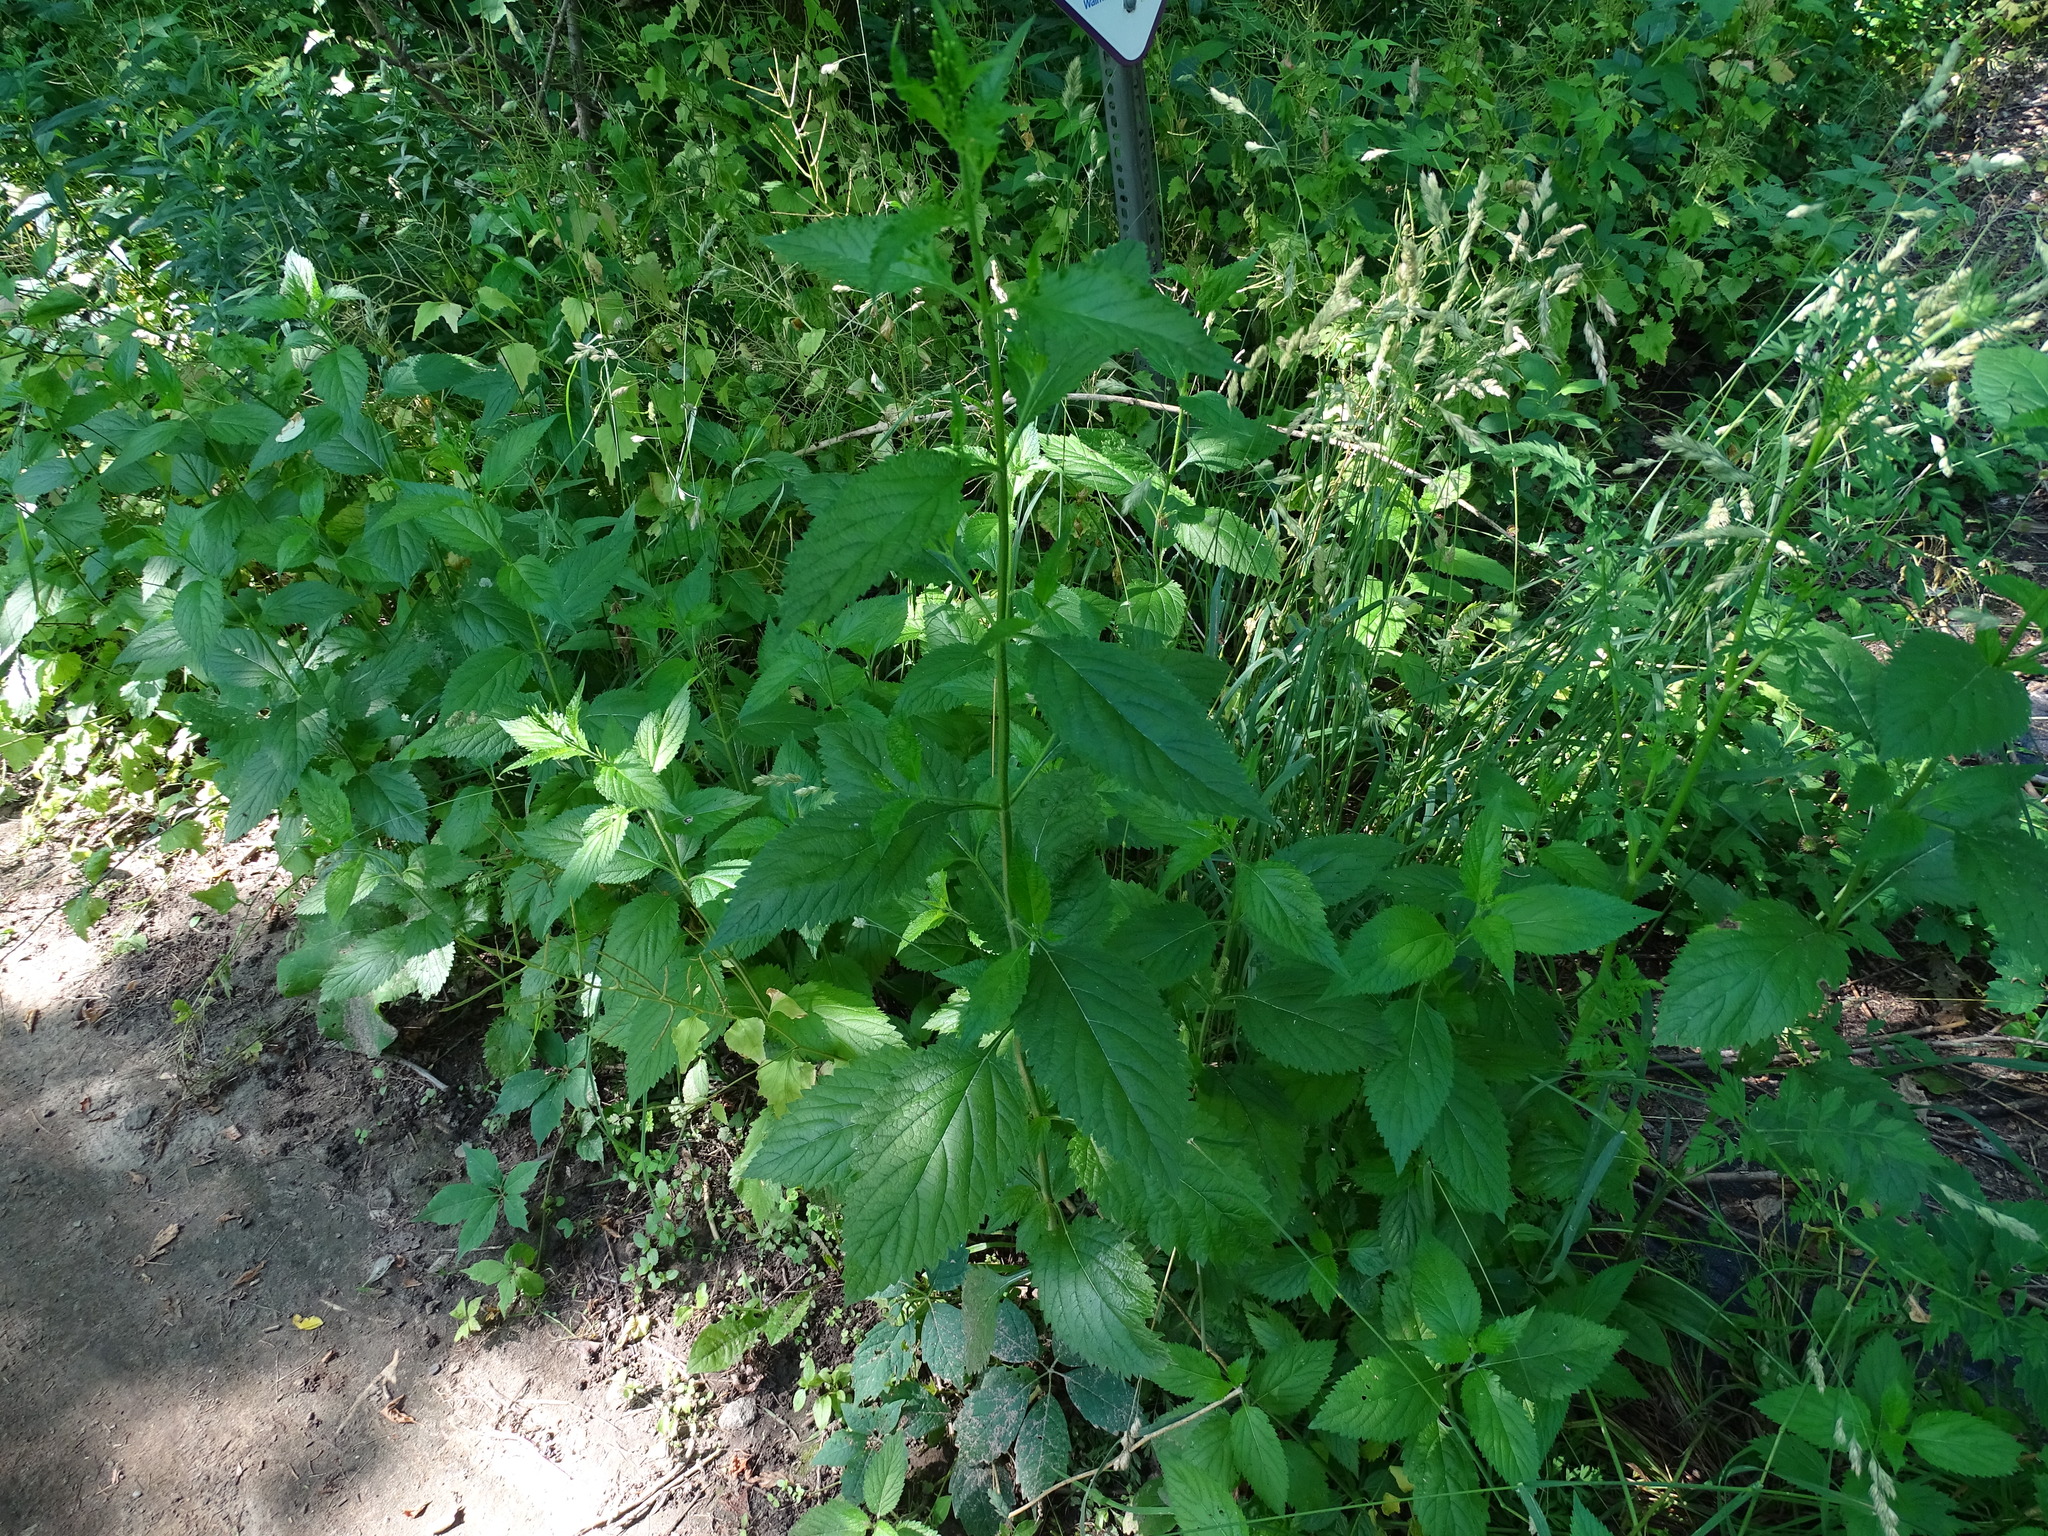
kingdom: Plantae
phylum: Tracheophyta
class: Magnoliopsida
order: Rosales
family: Urticaceae
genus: Urtica
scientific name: Urtica dioica
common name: Common nettle
